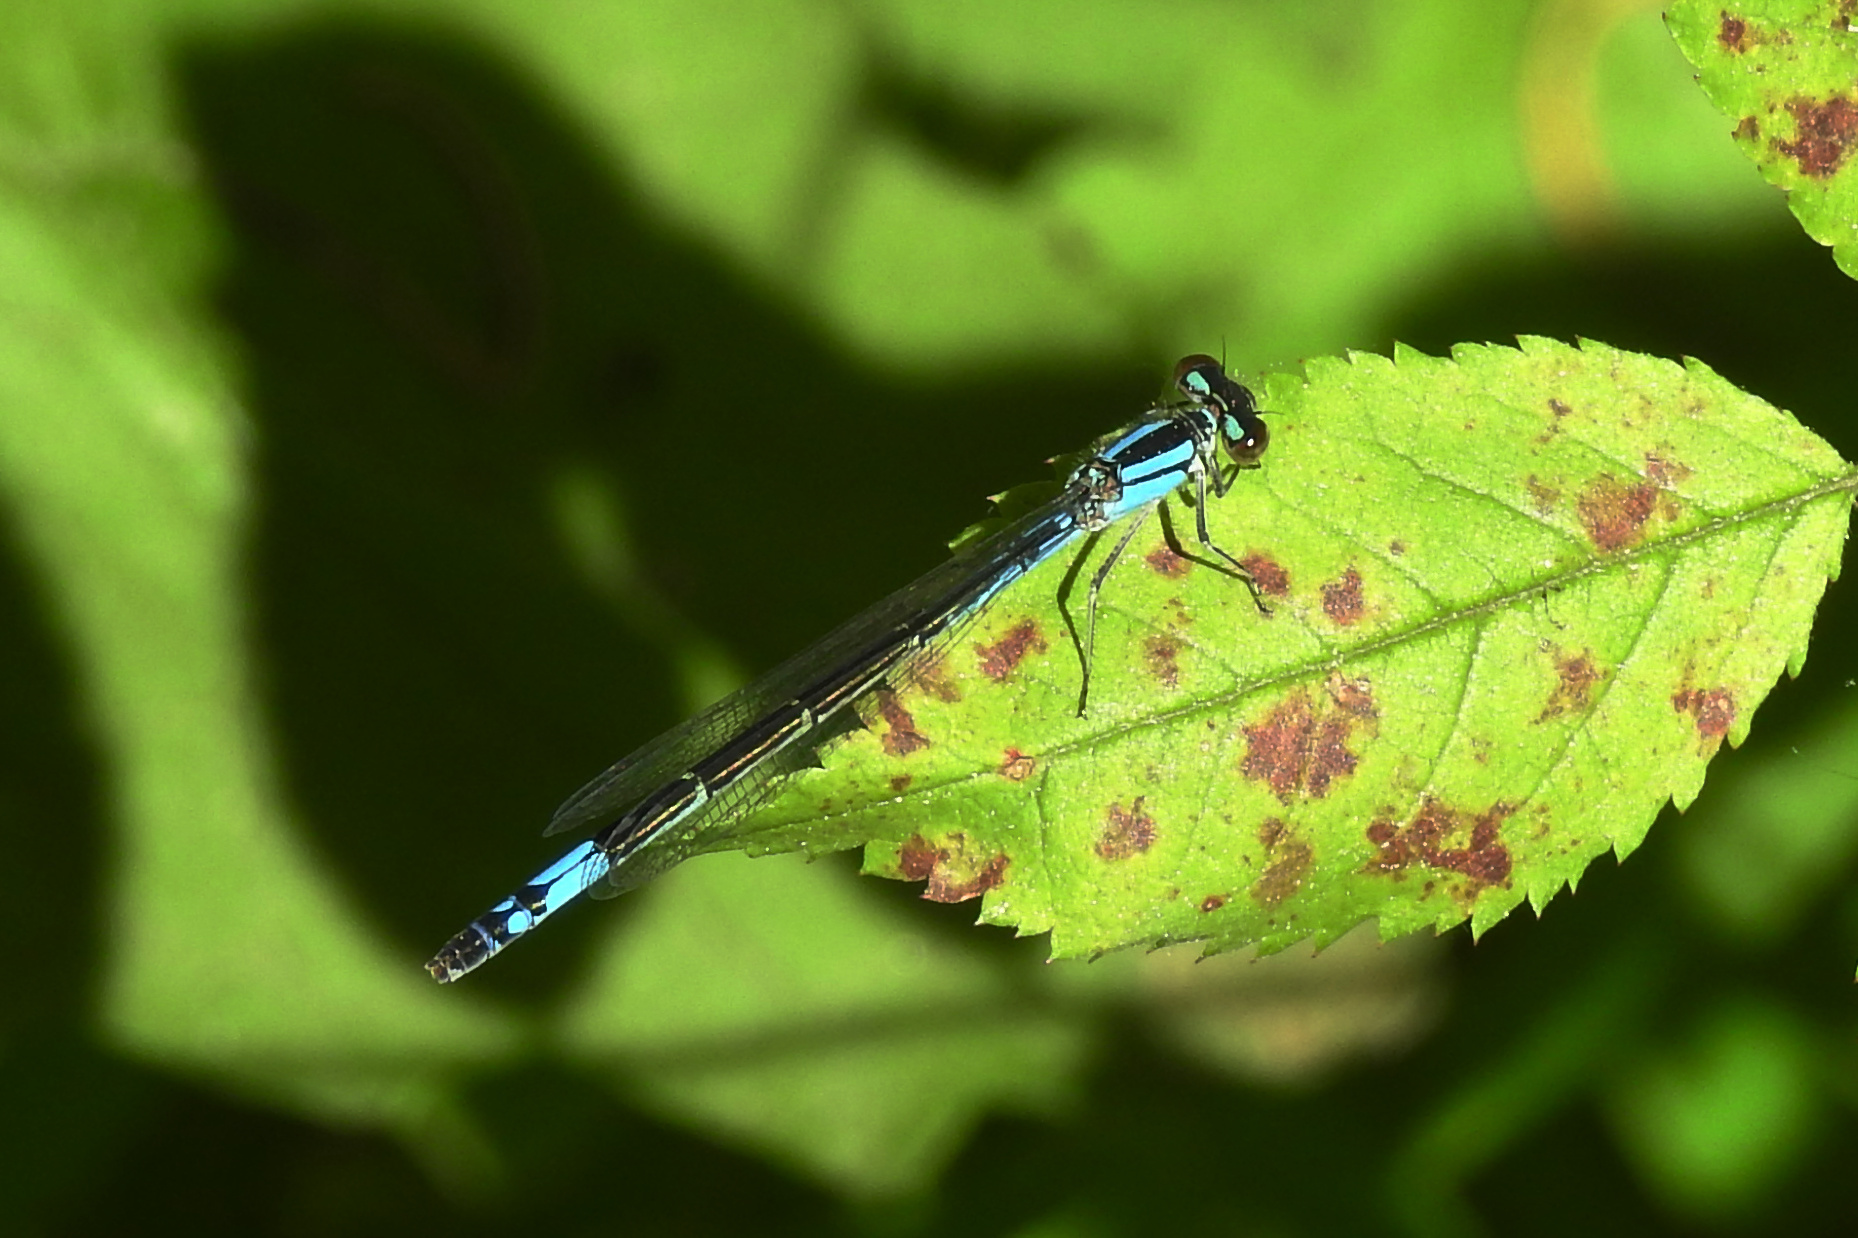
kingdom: Animalia
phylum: Arthropoda
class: Insecta
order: Odonata
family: Coenagrionidae
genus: Enallagma
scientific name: Enallagma aspersum
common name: Azure bluet
